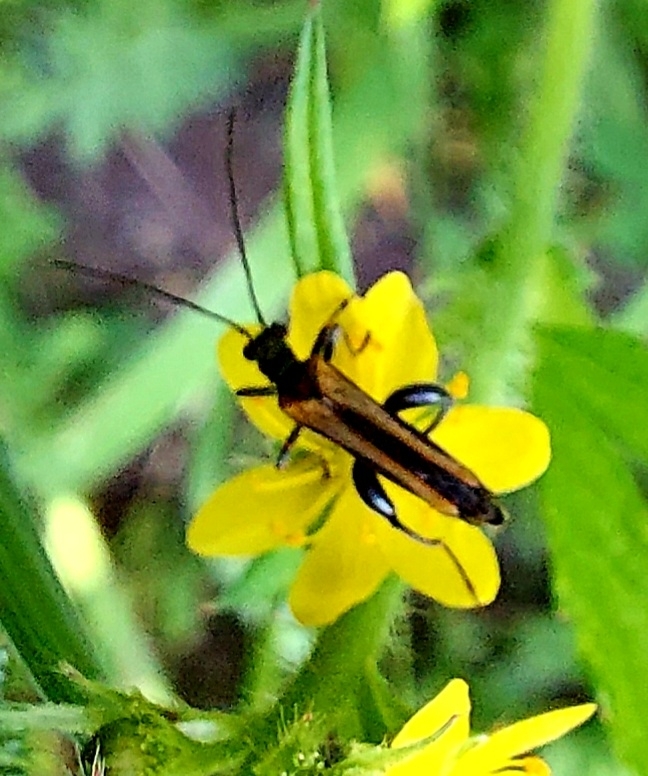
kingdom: Animalia
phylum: Arthropoda
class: Insecta
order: Coleoptera
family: Oedemeridae
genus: Oedemera
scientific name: Oedemera femorata
